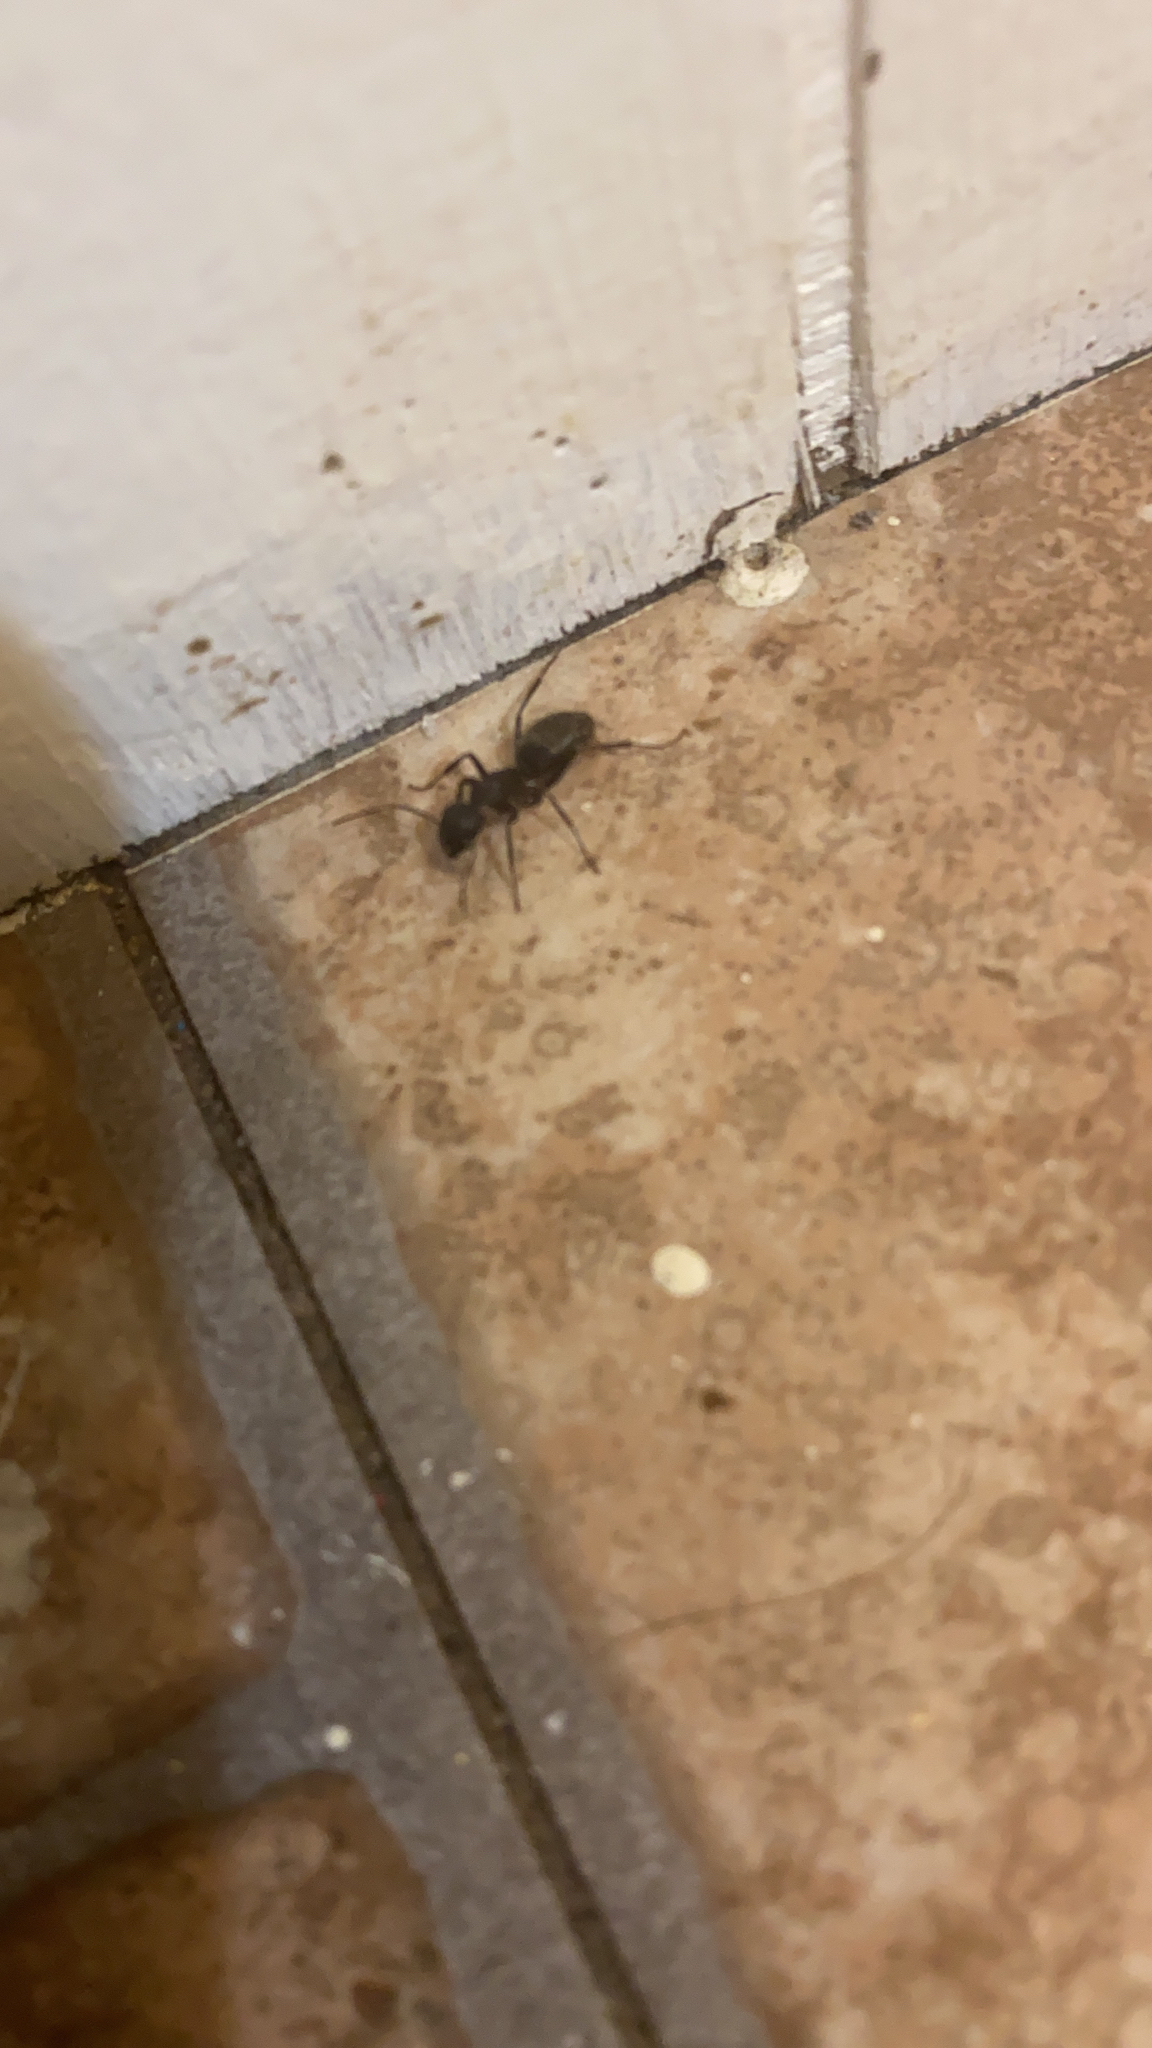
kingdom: Animalia
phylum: Arthropoda
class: Insecta
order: Hymenoptera
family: Formicidae
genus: Camponotus
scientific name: Camponotus pennsylvanicus
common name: Black carpenter ant
